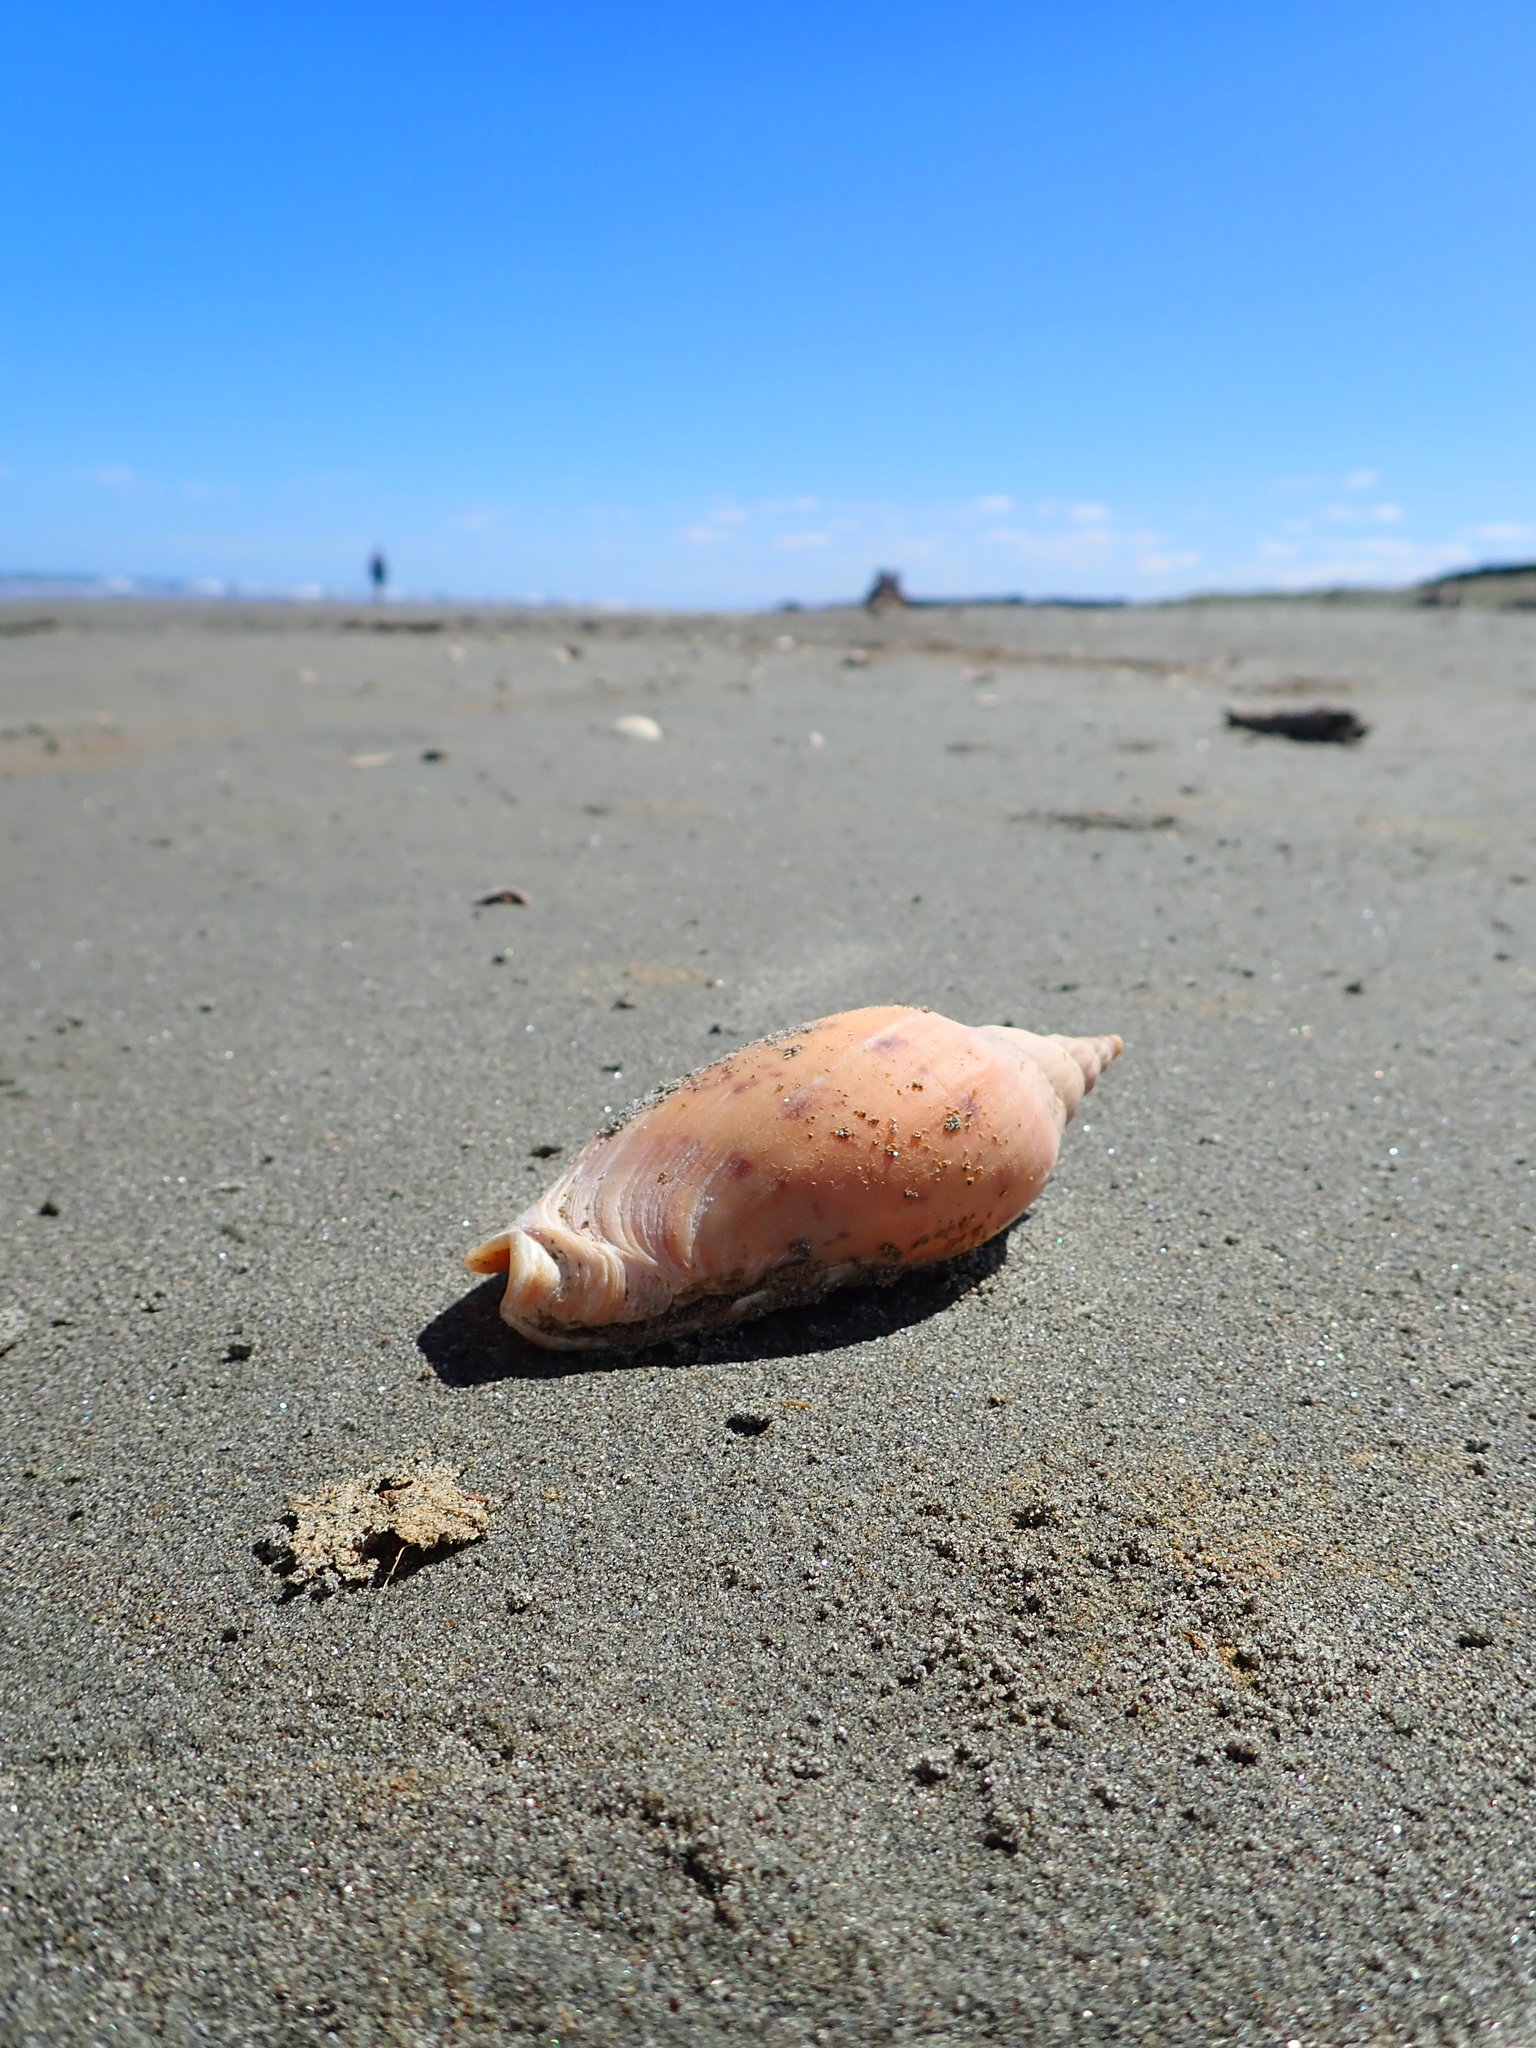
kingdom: Animalia
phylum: Mollusca
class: Gastropoda
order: Neogastropoda
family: Volutidae
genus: Alcithoe
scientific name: Alcithoe arabica
